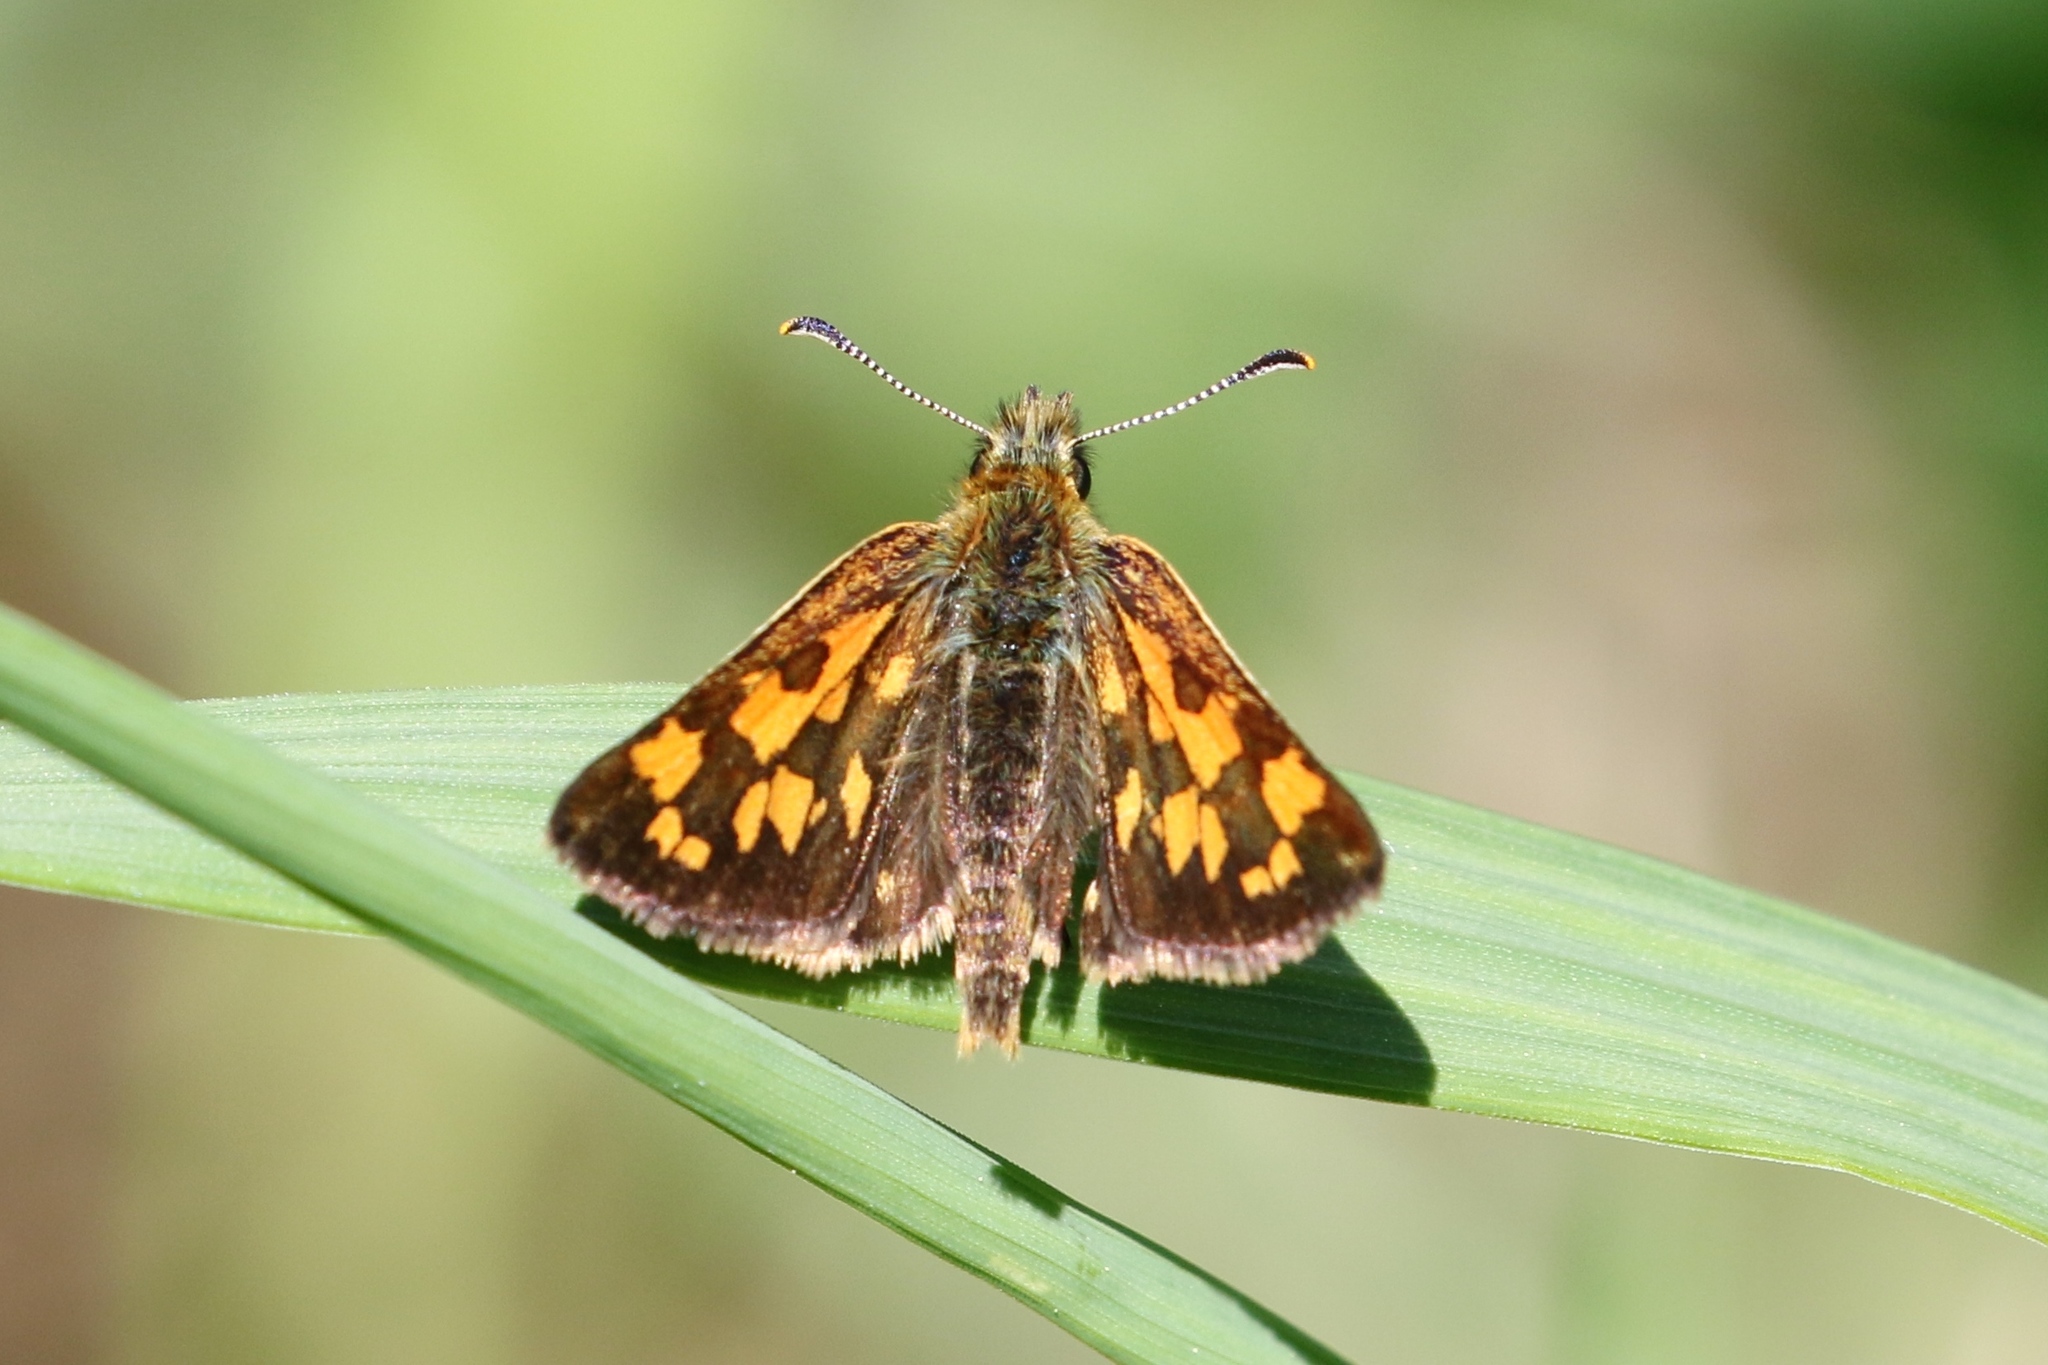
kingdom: Animalia
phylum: Arthropoda
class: Insecta
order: Lepidoptera
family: Hesperiidae
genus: Carterocephalus
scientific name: Carterocephalus mandan
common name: Arctic skipperling
